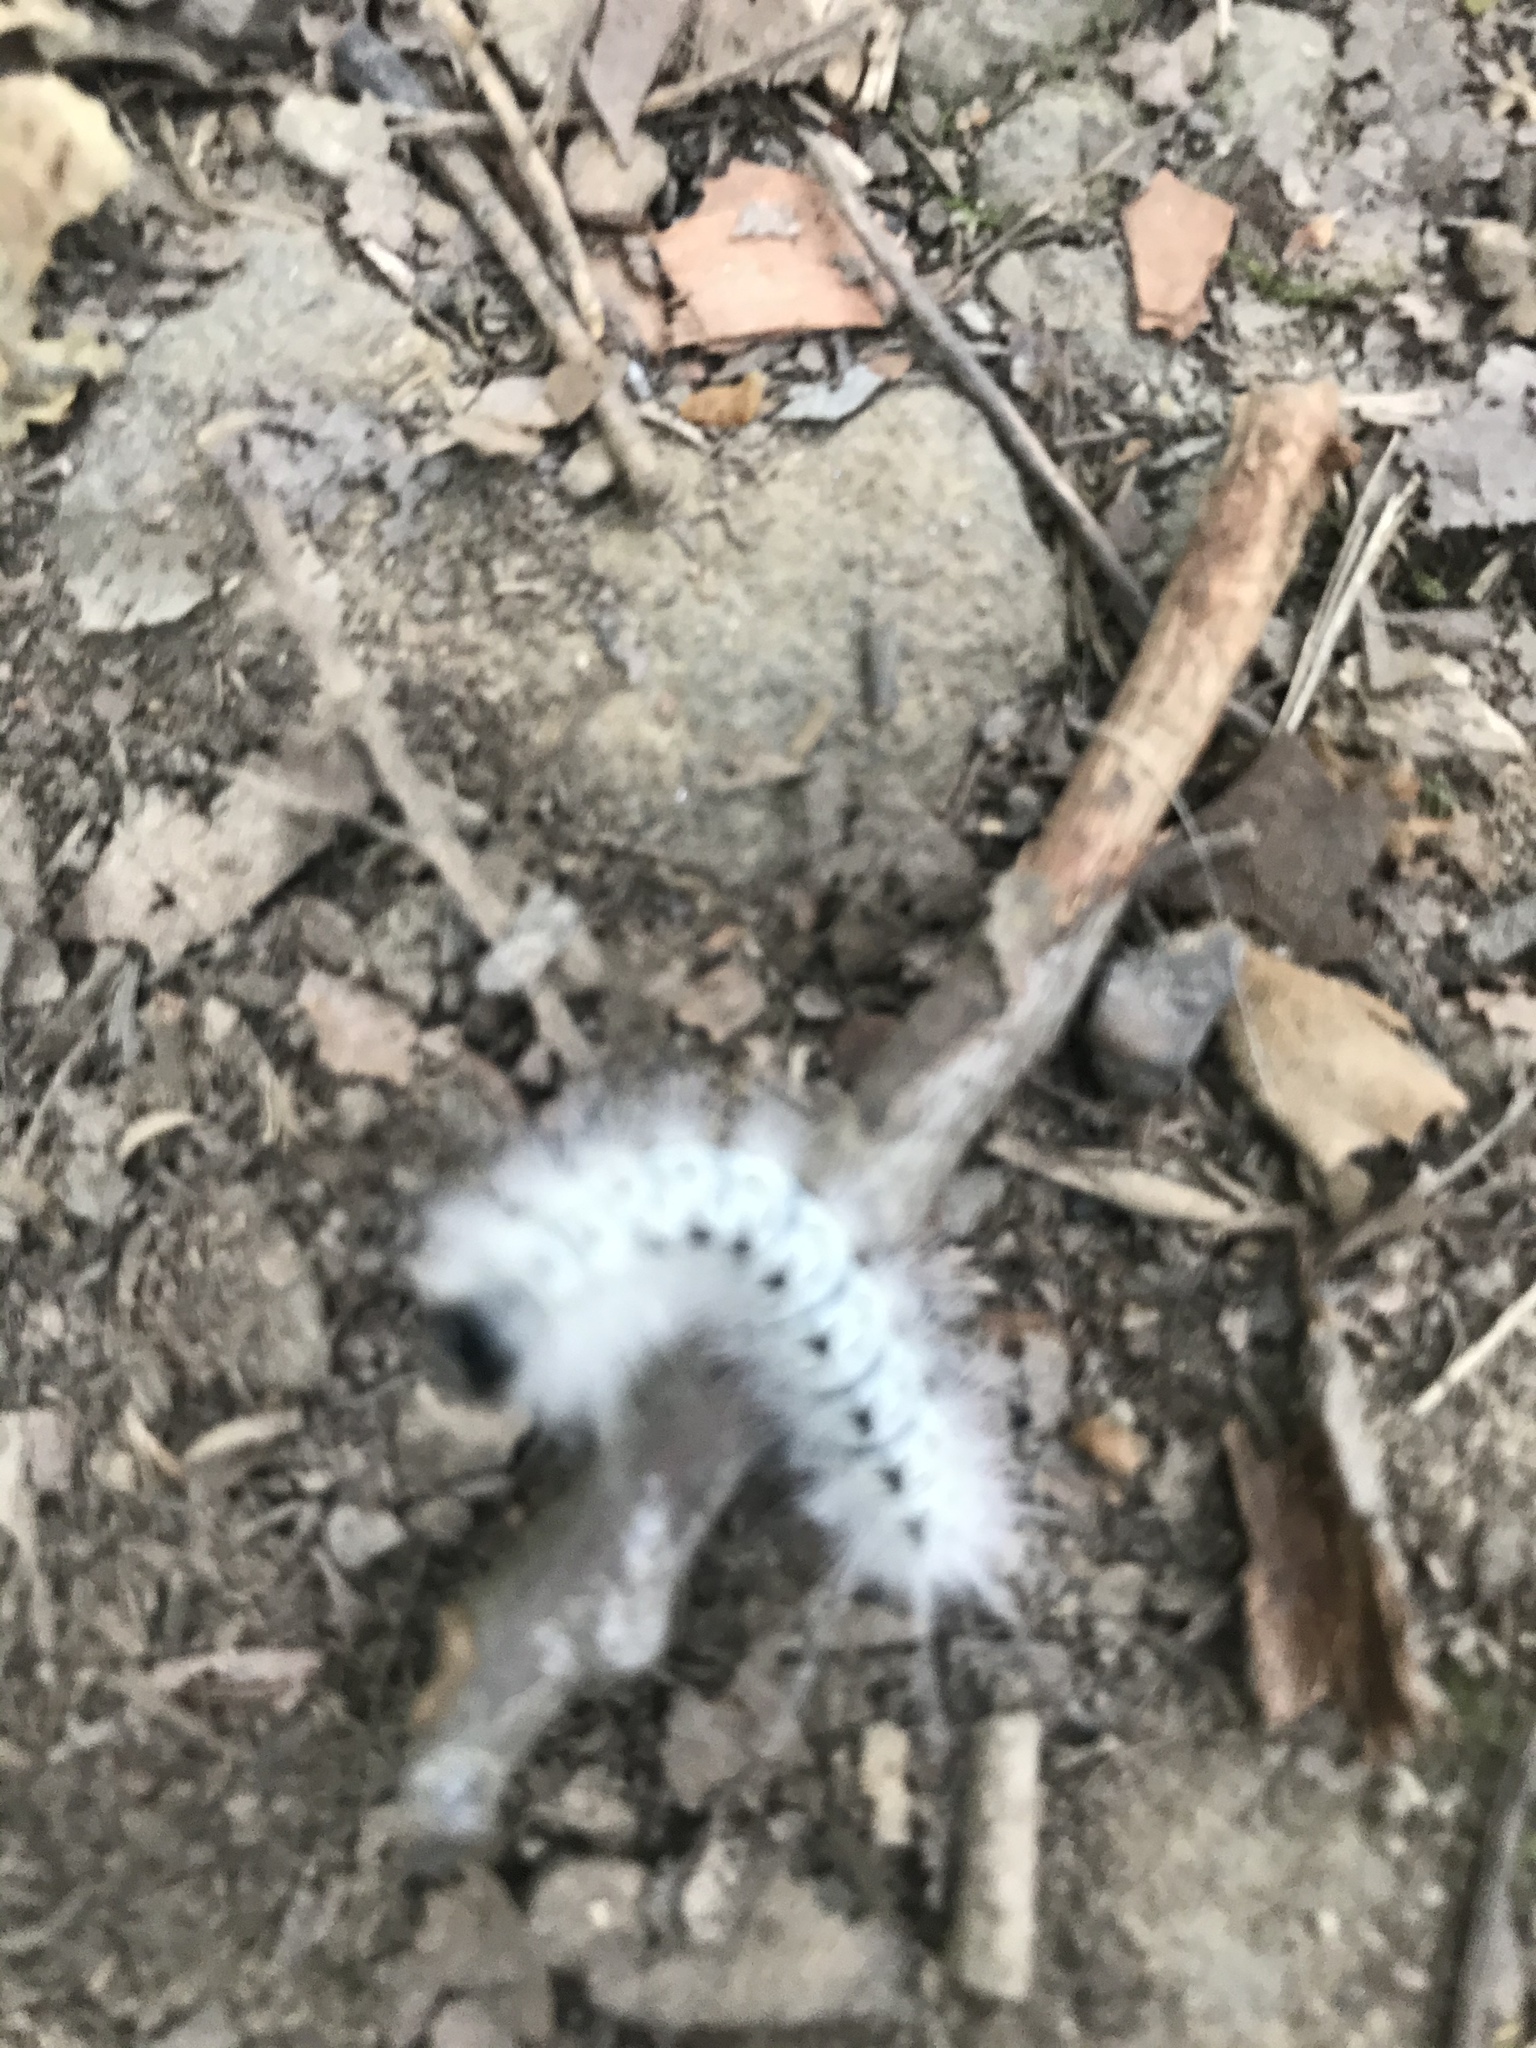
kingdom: Animalia
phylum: Arthropoda
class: Insecta
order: Lepidoptera
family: Erebidae
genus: Lophocampa
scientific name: Lophocampa caryae
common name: Hickory tussock moth
